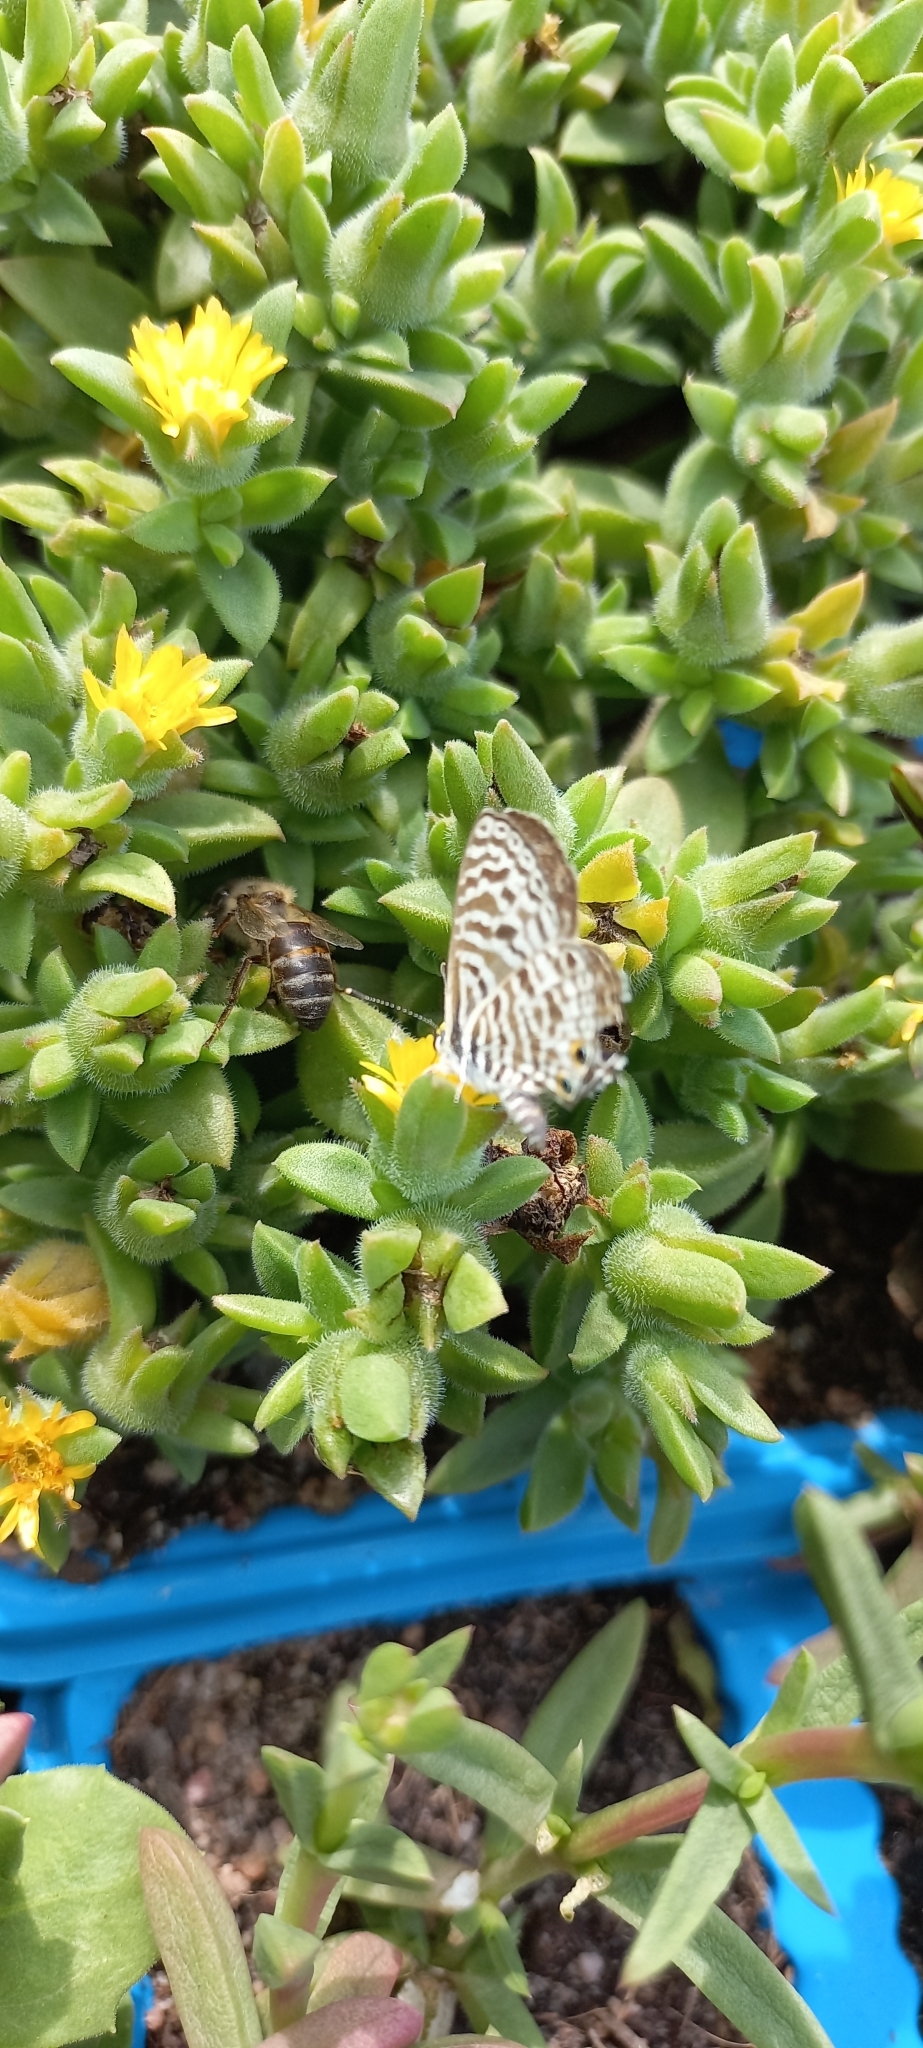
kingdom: Animalia
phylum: Arthropoda
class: Insecta
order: Lepidoptera
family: Lycaenidae
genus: Leptotes
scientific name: Leptotes
